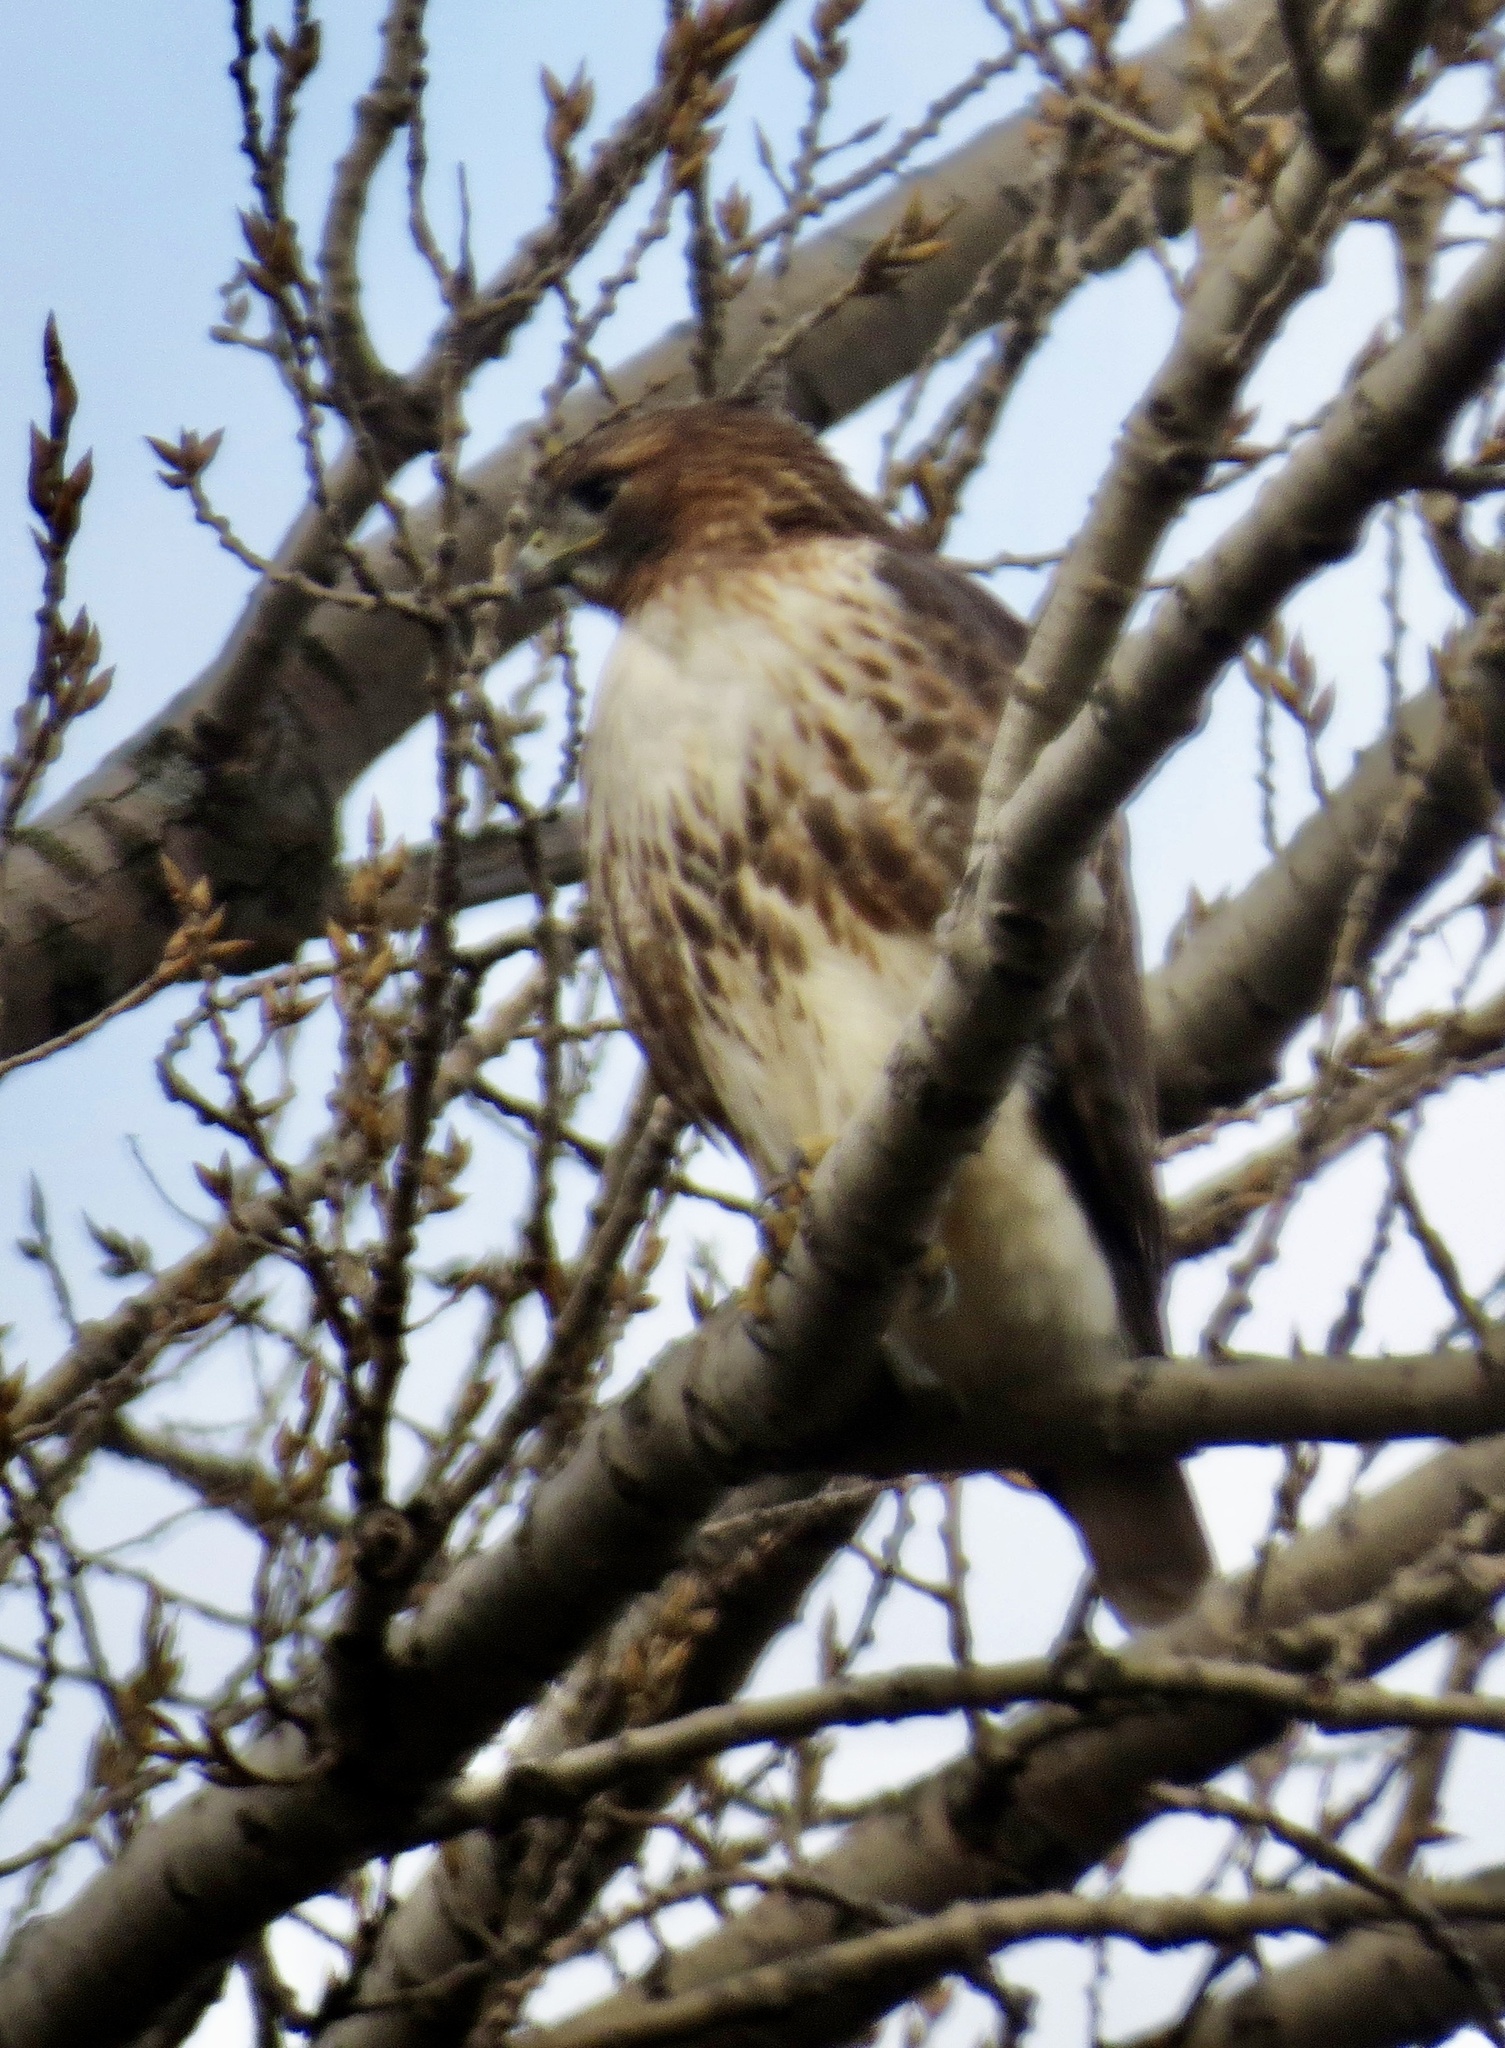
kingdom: Animalia
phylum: Chordata
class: Aves
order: Accipitriformes
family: Accipitridae
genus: Buteo
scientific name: Buteo jamaicensis
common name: Red-tailed hawk
